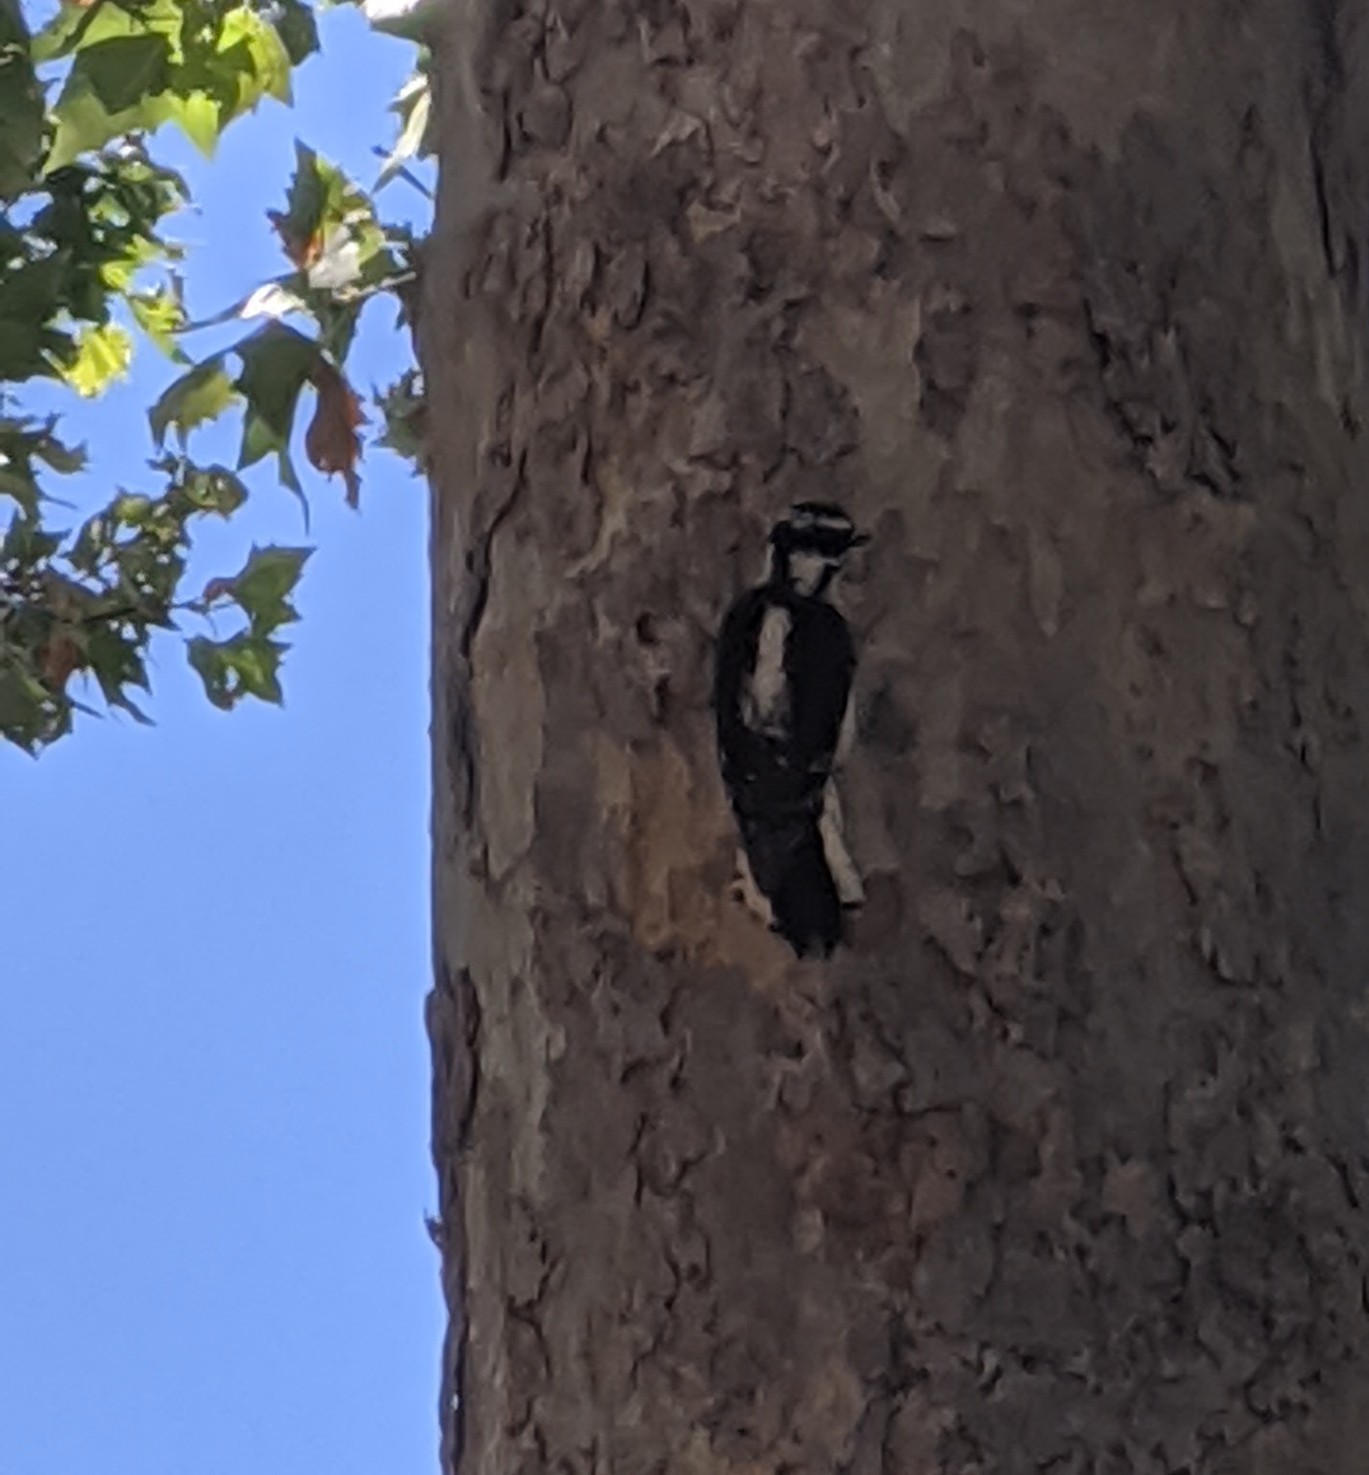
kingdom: Animalia
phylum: Chordata
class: Aves
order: Piciformes
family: Picidae
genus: Dryobates
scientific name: Dryobates pubescens
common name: Downy woodpecker
